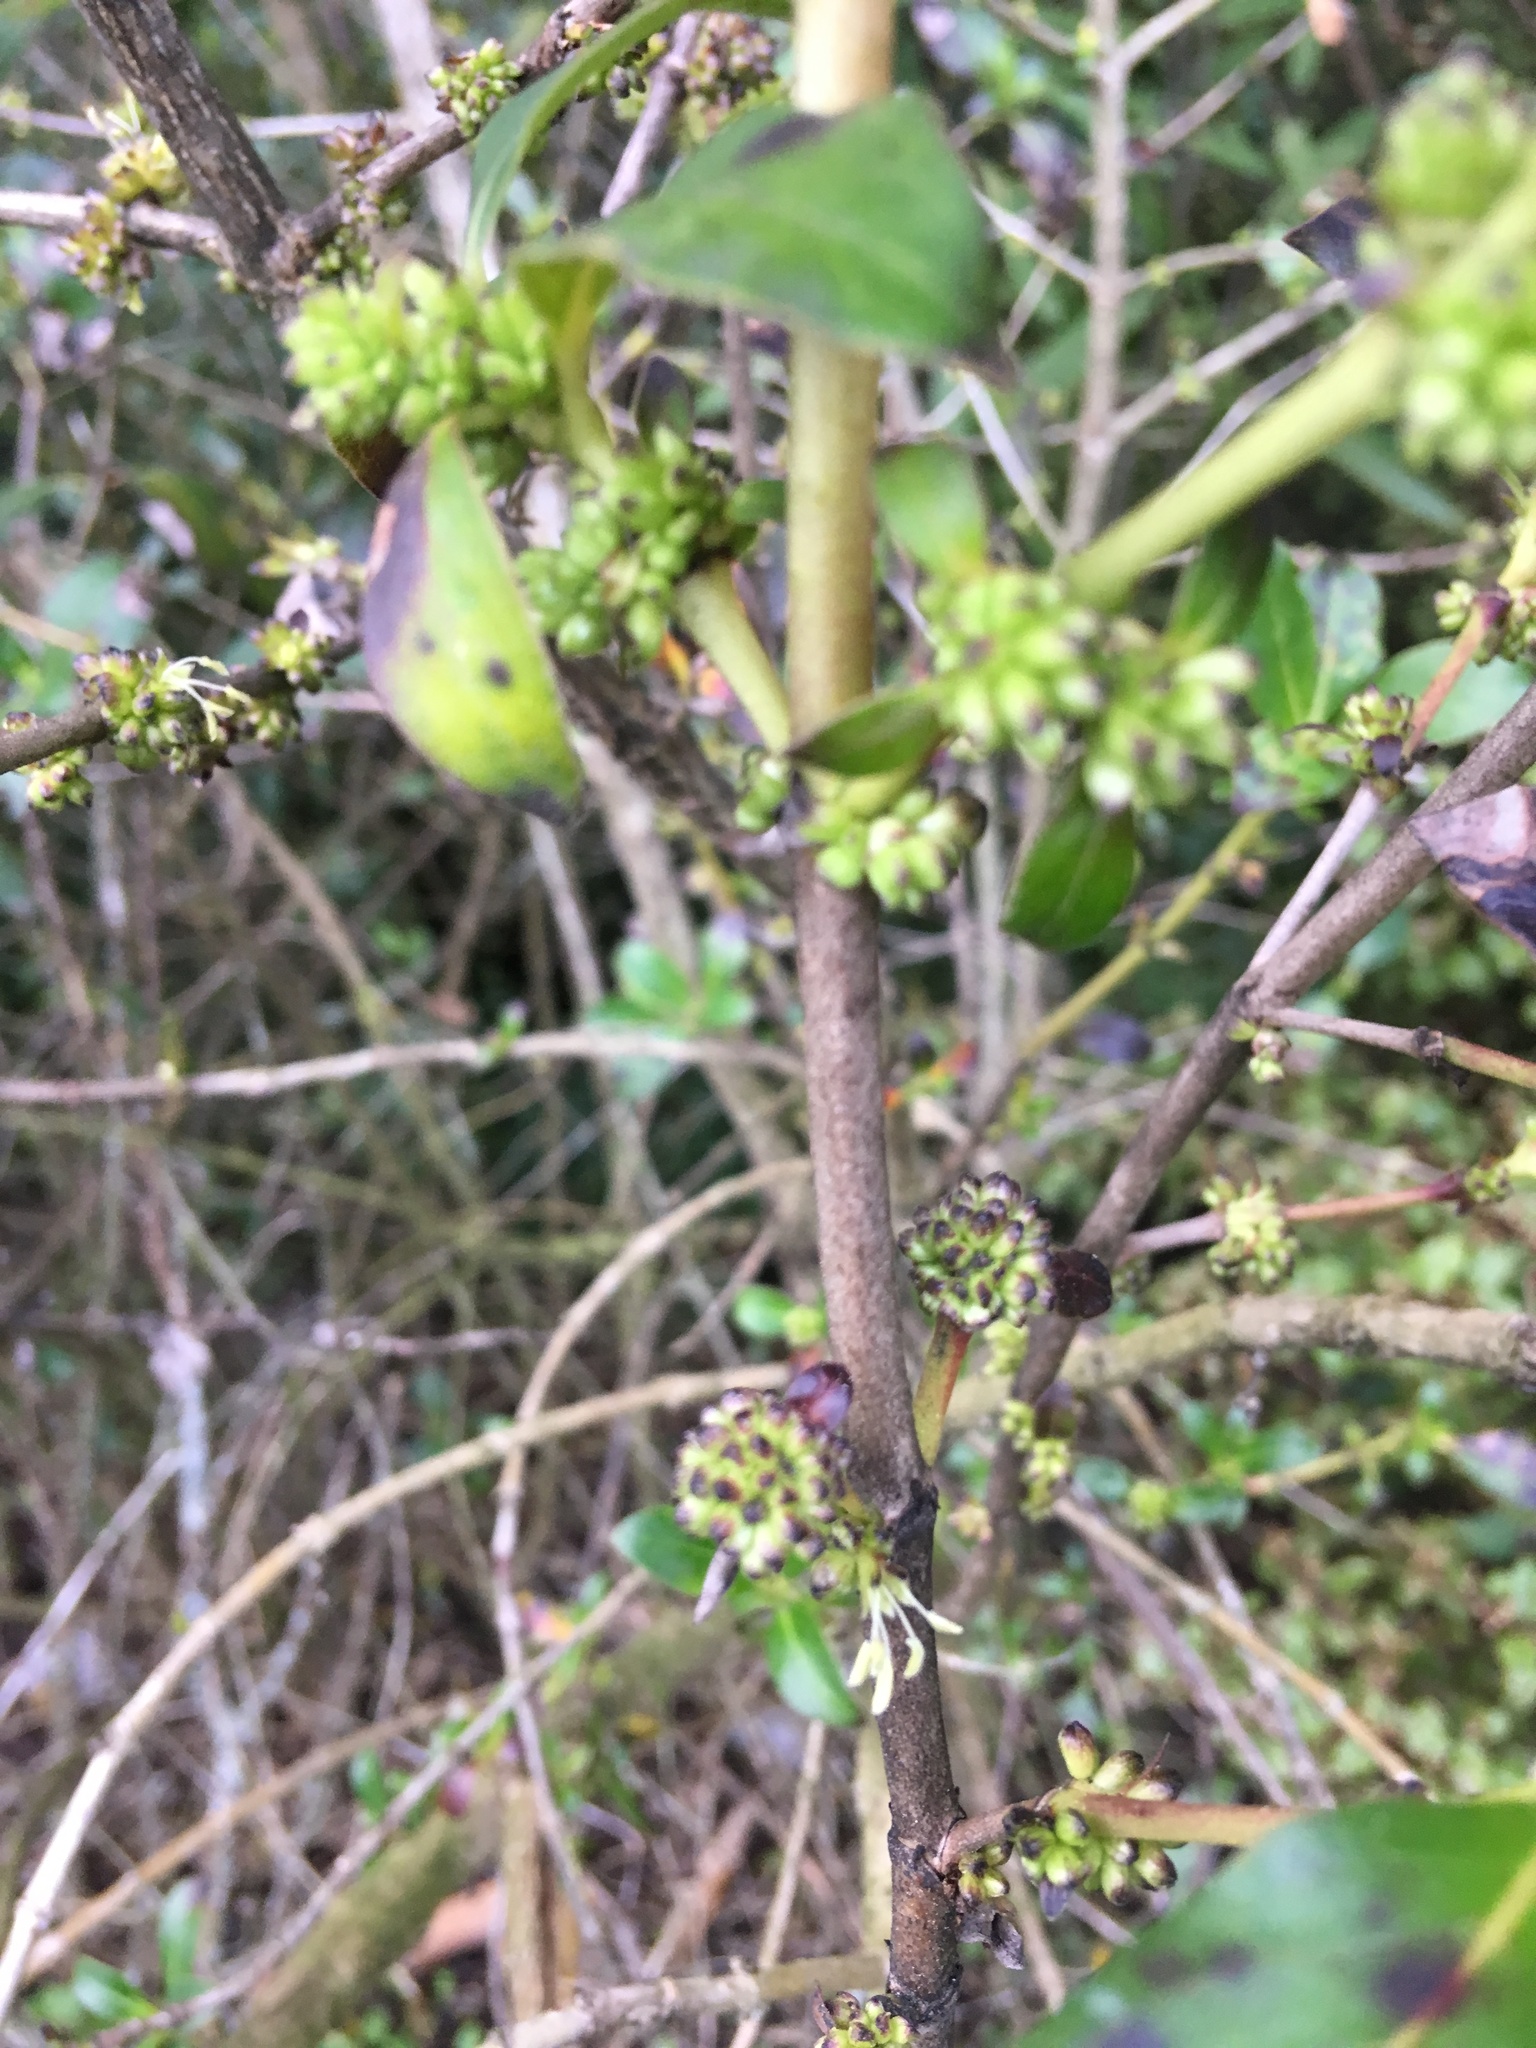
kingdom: Plantae
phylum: Tracheophyta
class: Magnoliopsida
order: Gentianales
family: Rubiaceae
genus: Coprosma
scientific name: Coprosma robusta
